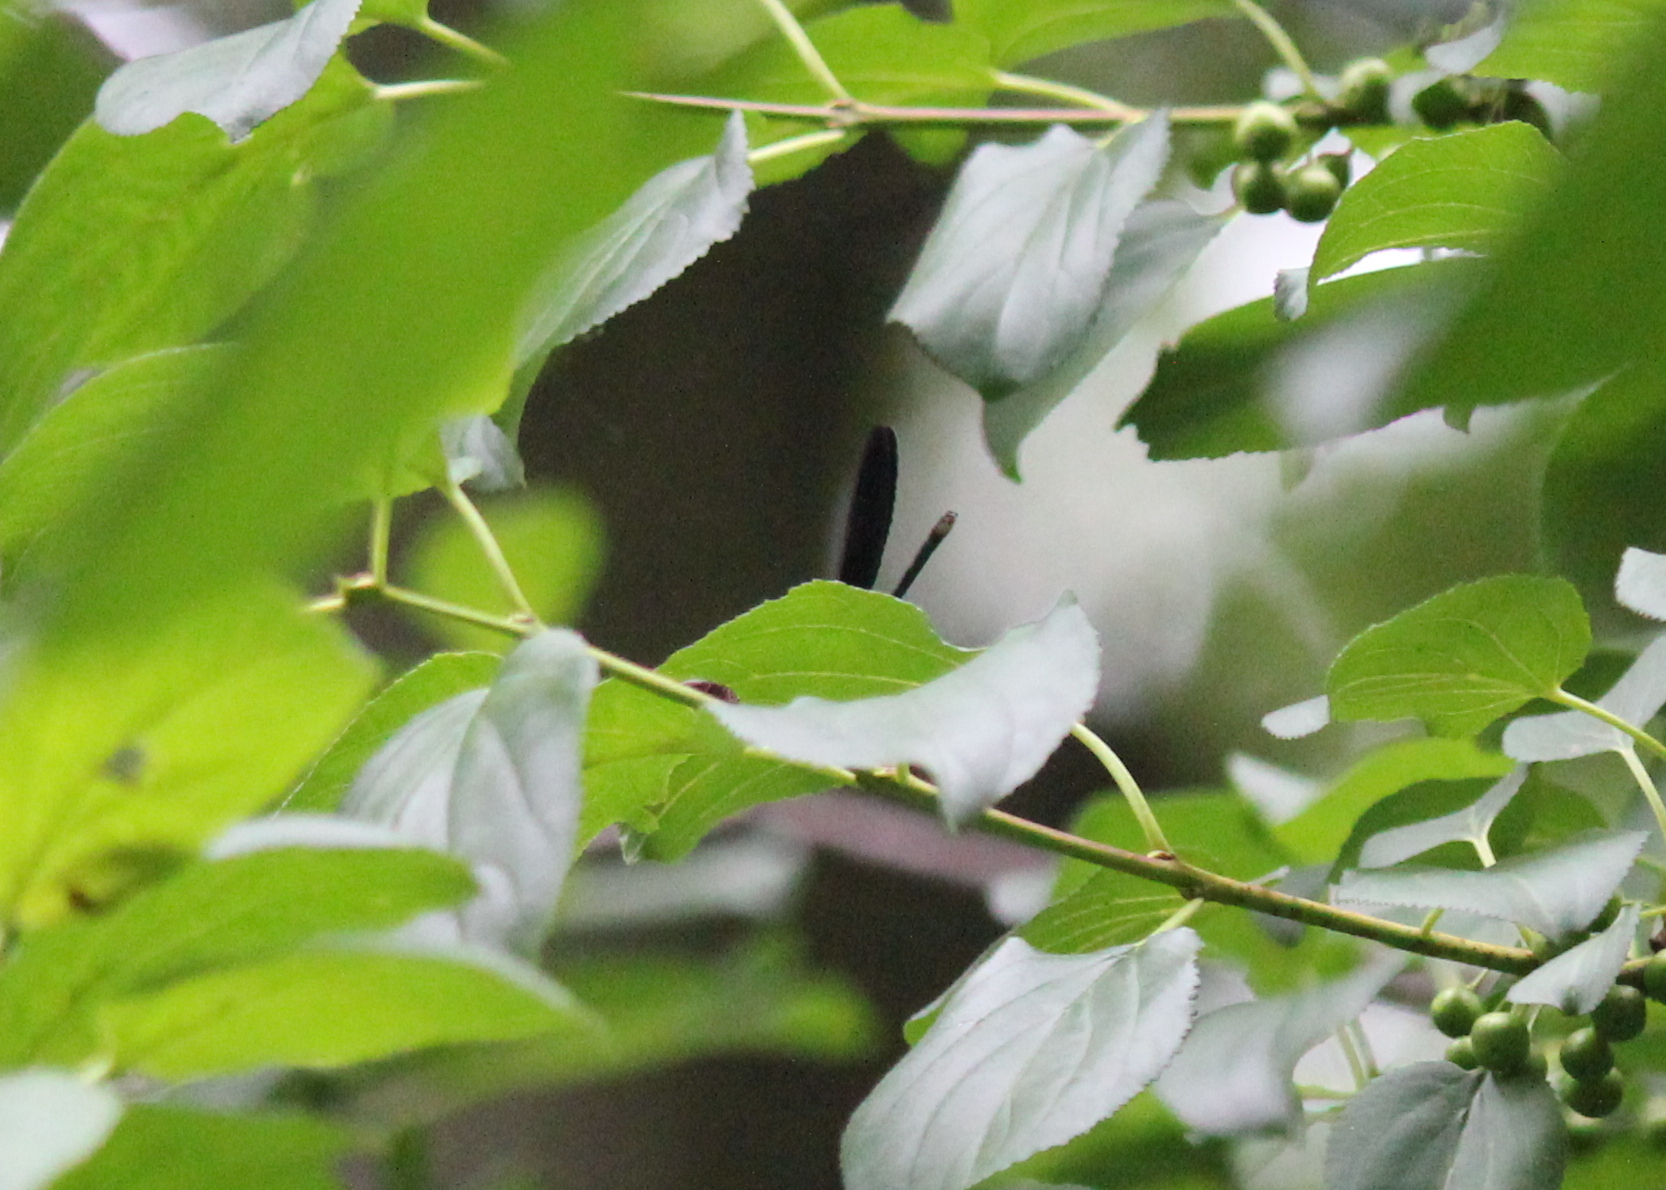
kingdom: Animalia
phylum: Arthropoda
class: Insecta
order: Odonata
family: Calopterygidae
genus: Calopteryx
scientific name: Calopteryx maculata
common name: Ebony jewelwing
